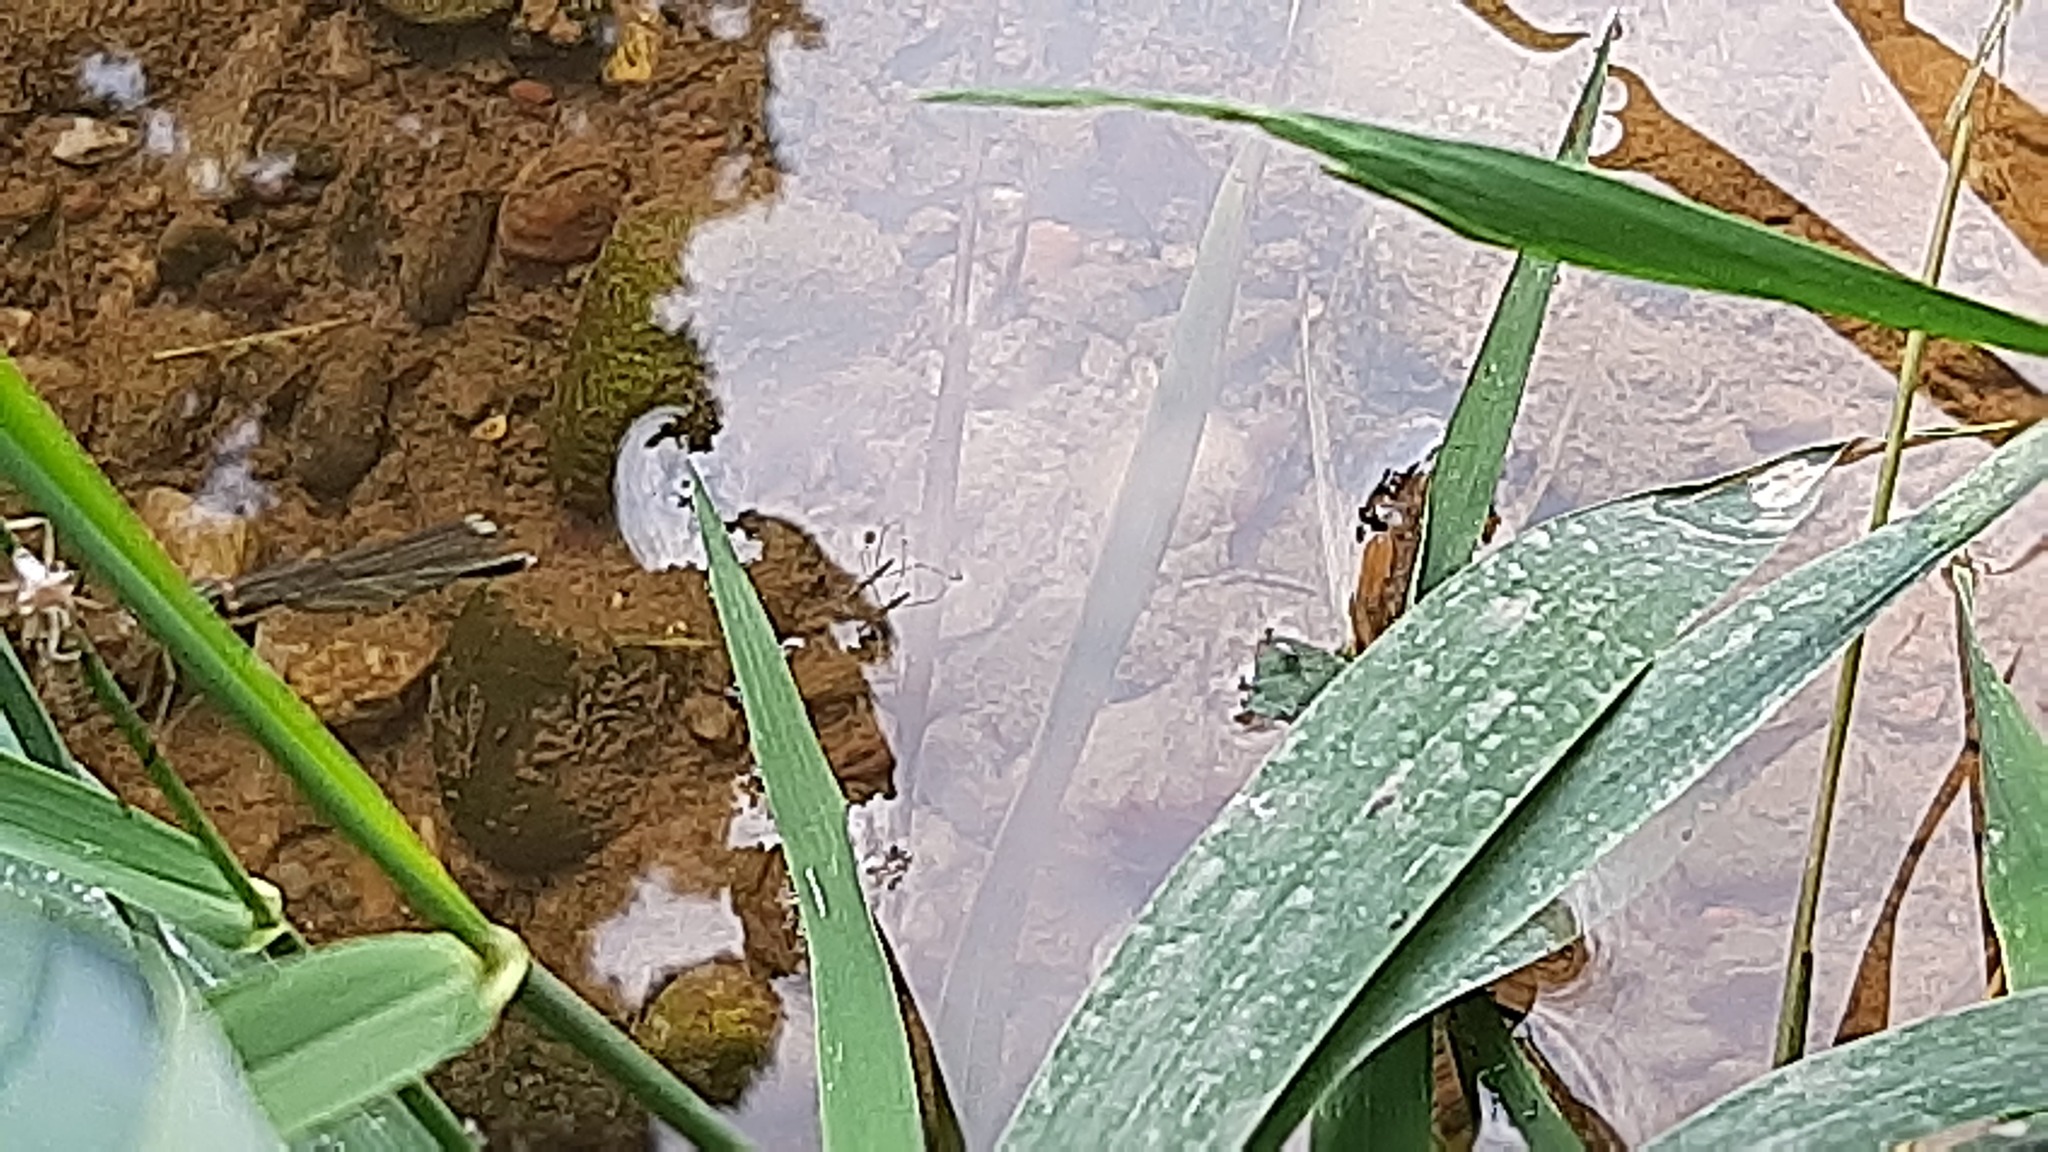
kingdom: Animalia
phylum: Arthropoda
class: Insecta
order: Hemiptera
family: Hydrometridae
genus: Hydrometra
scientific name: Hydrometra
